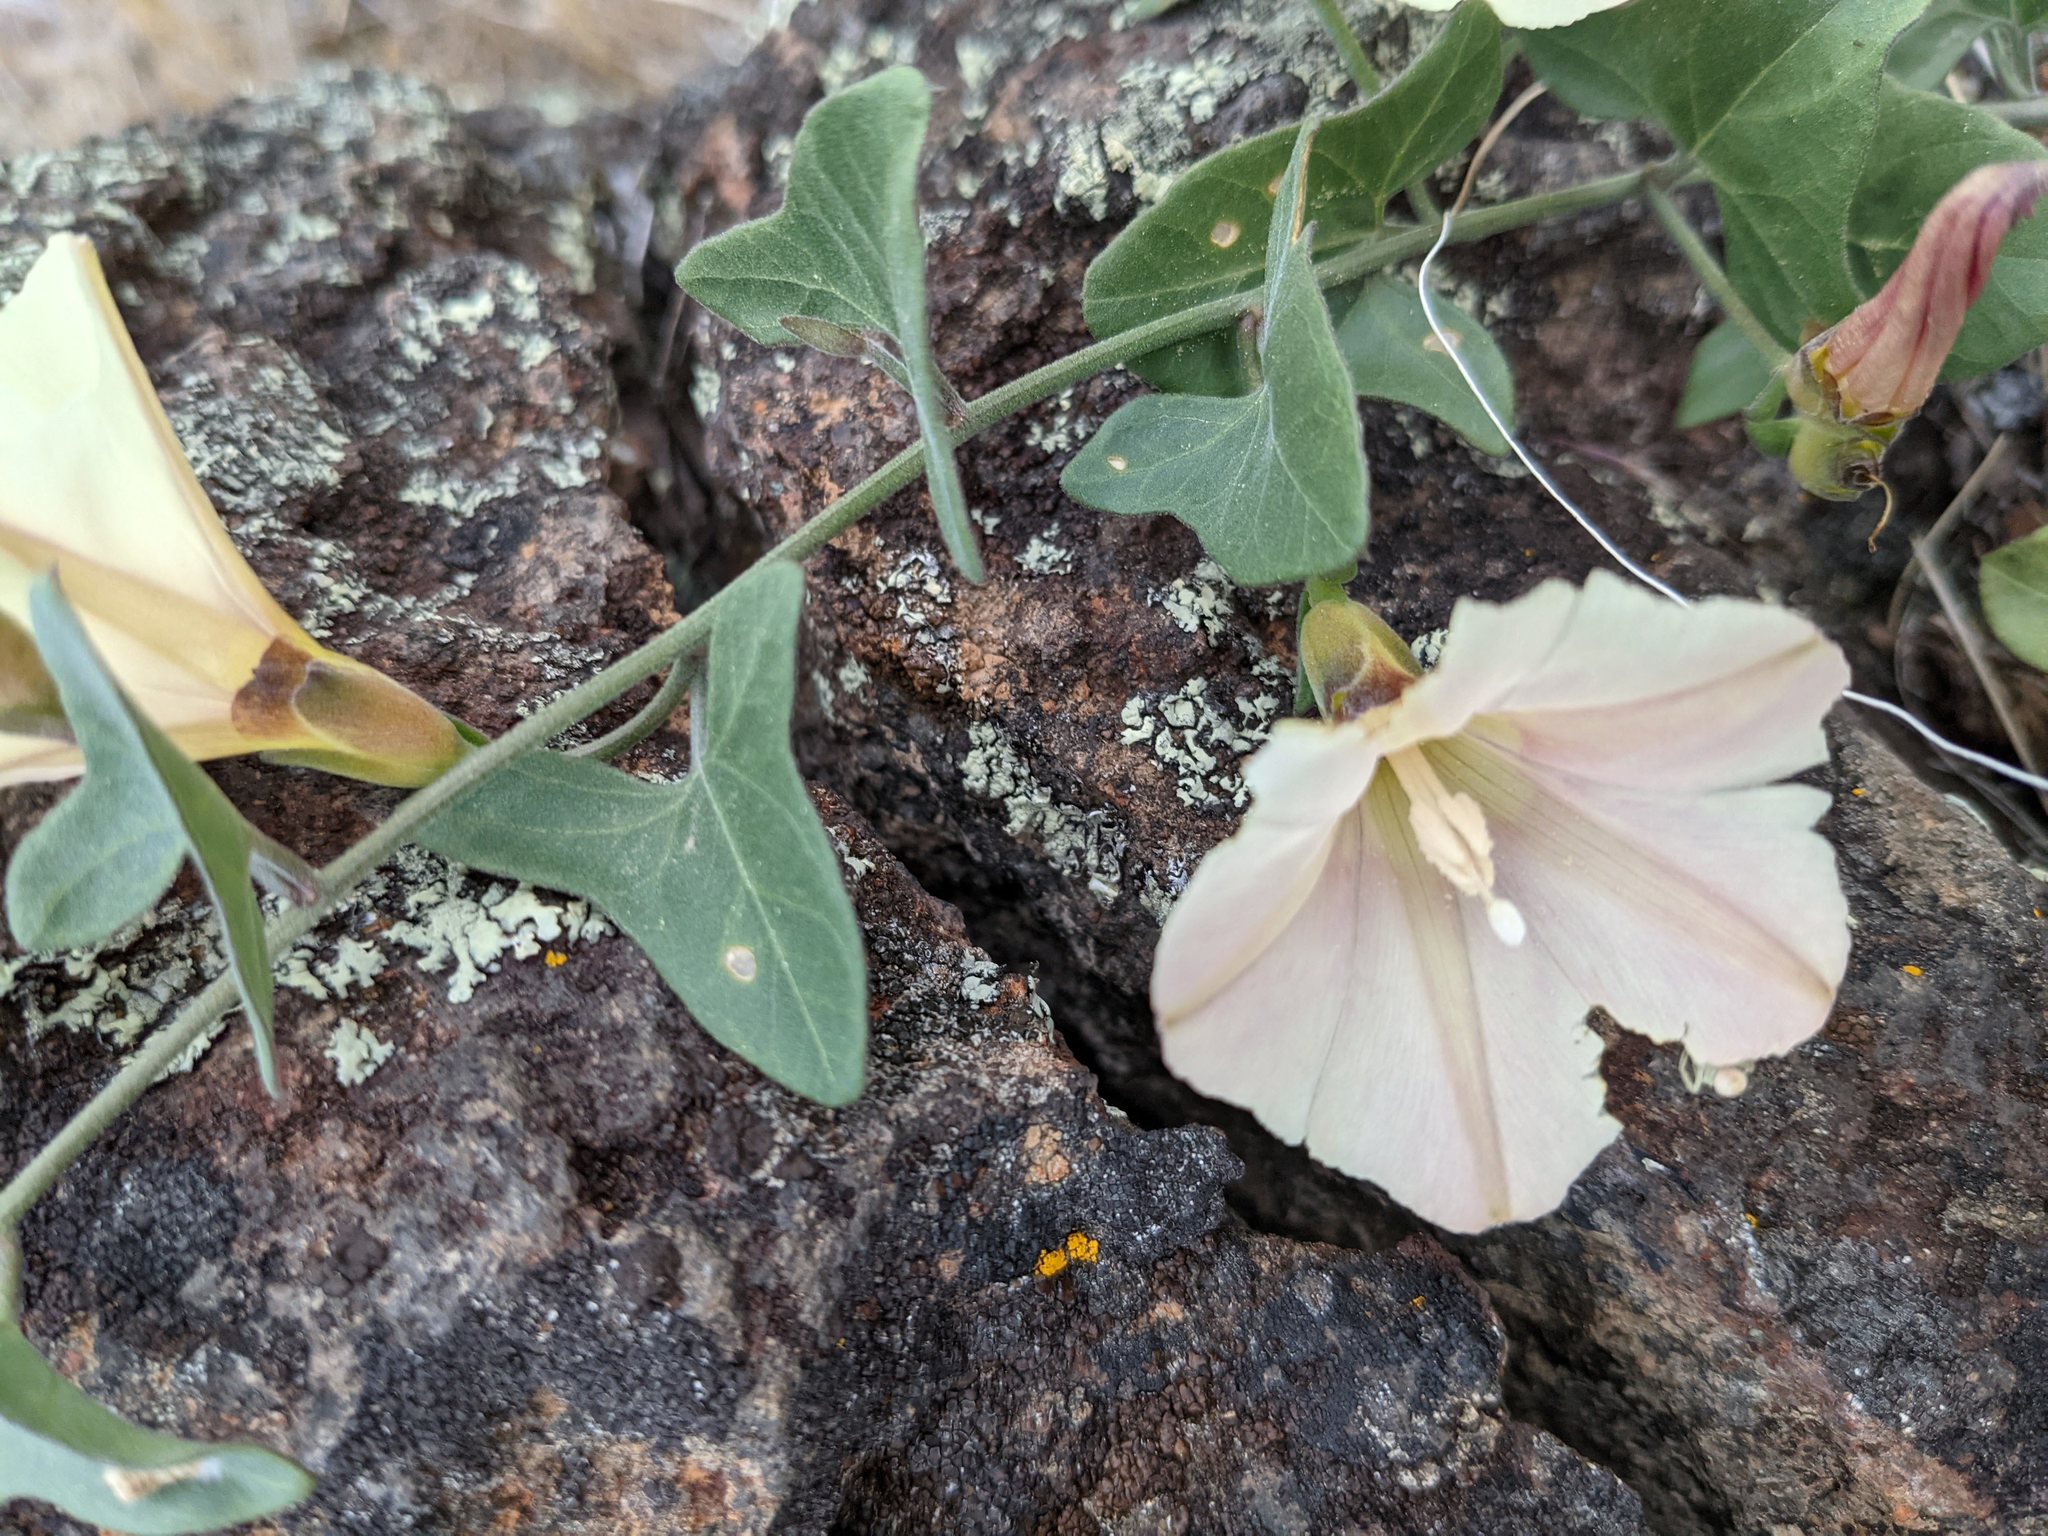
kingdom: Plantae
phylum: Tracheophyta
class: Magnoliopsida
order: Solanales
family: Convolvulaceae
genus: Calystegia
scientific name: Calystegia occidentalis
